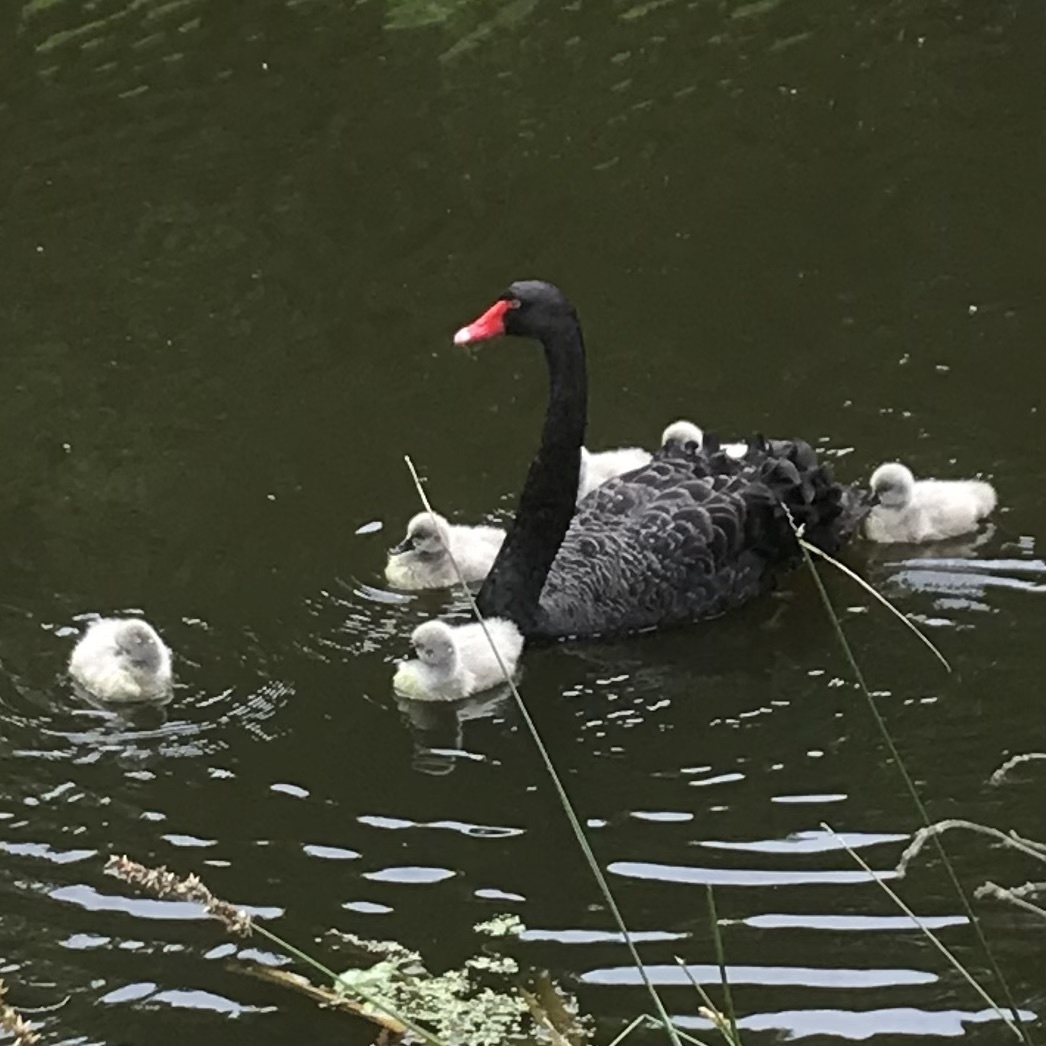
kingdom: Animalia
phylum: Chordata
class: Aves
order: Anseriformes
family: Anatidae
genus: Cygnus
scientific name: Cygnus atratus
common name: Black swan
